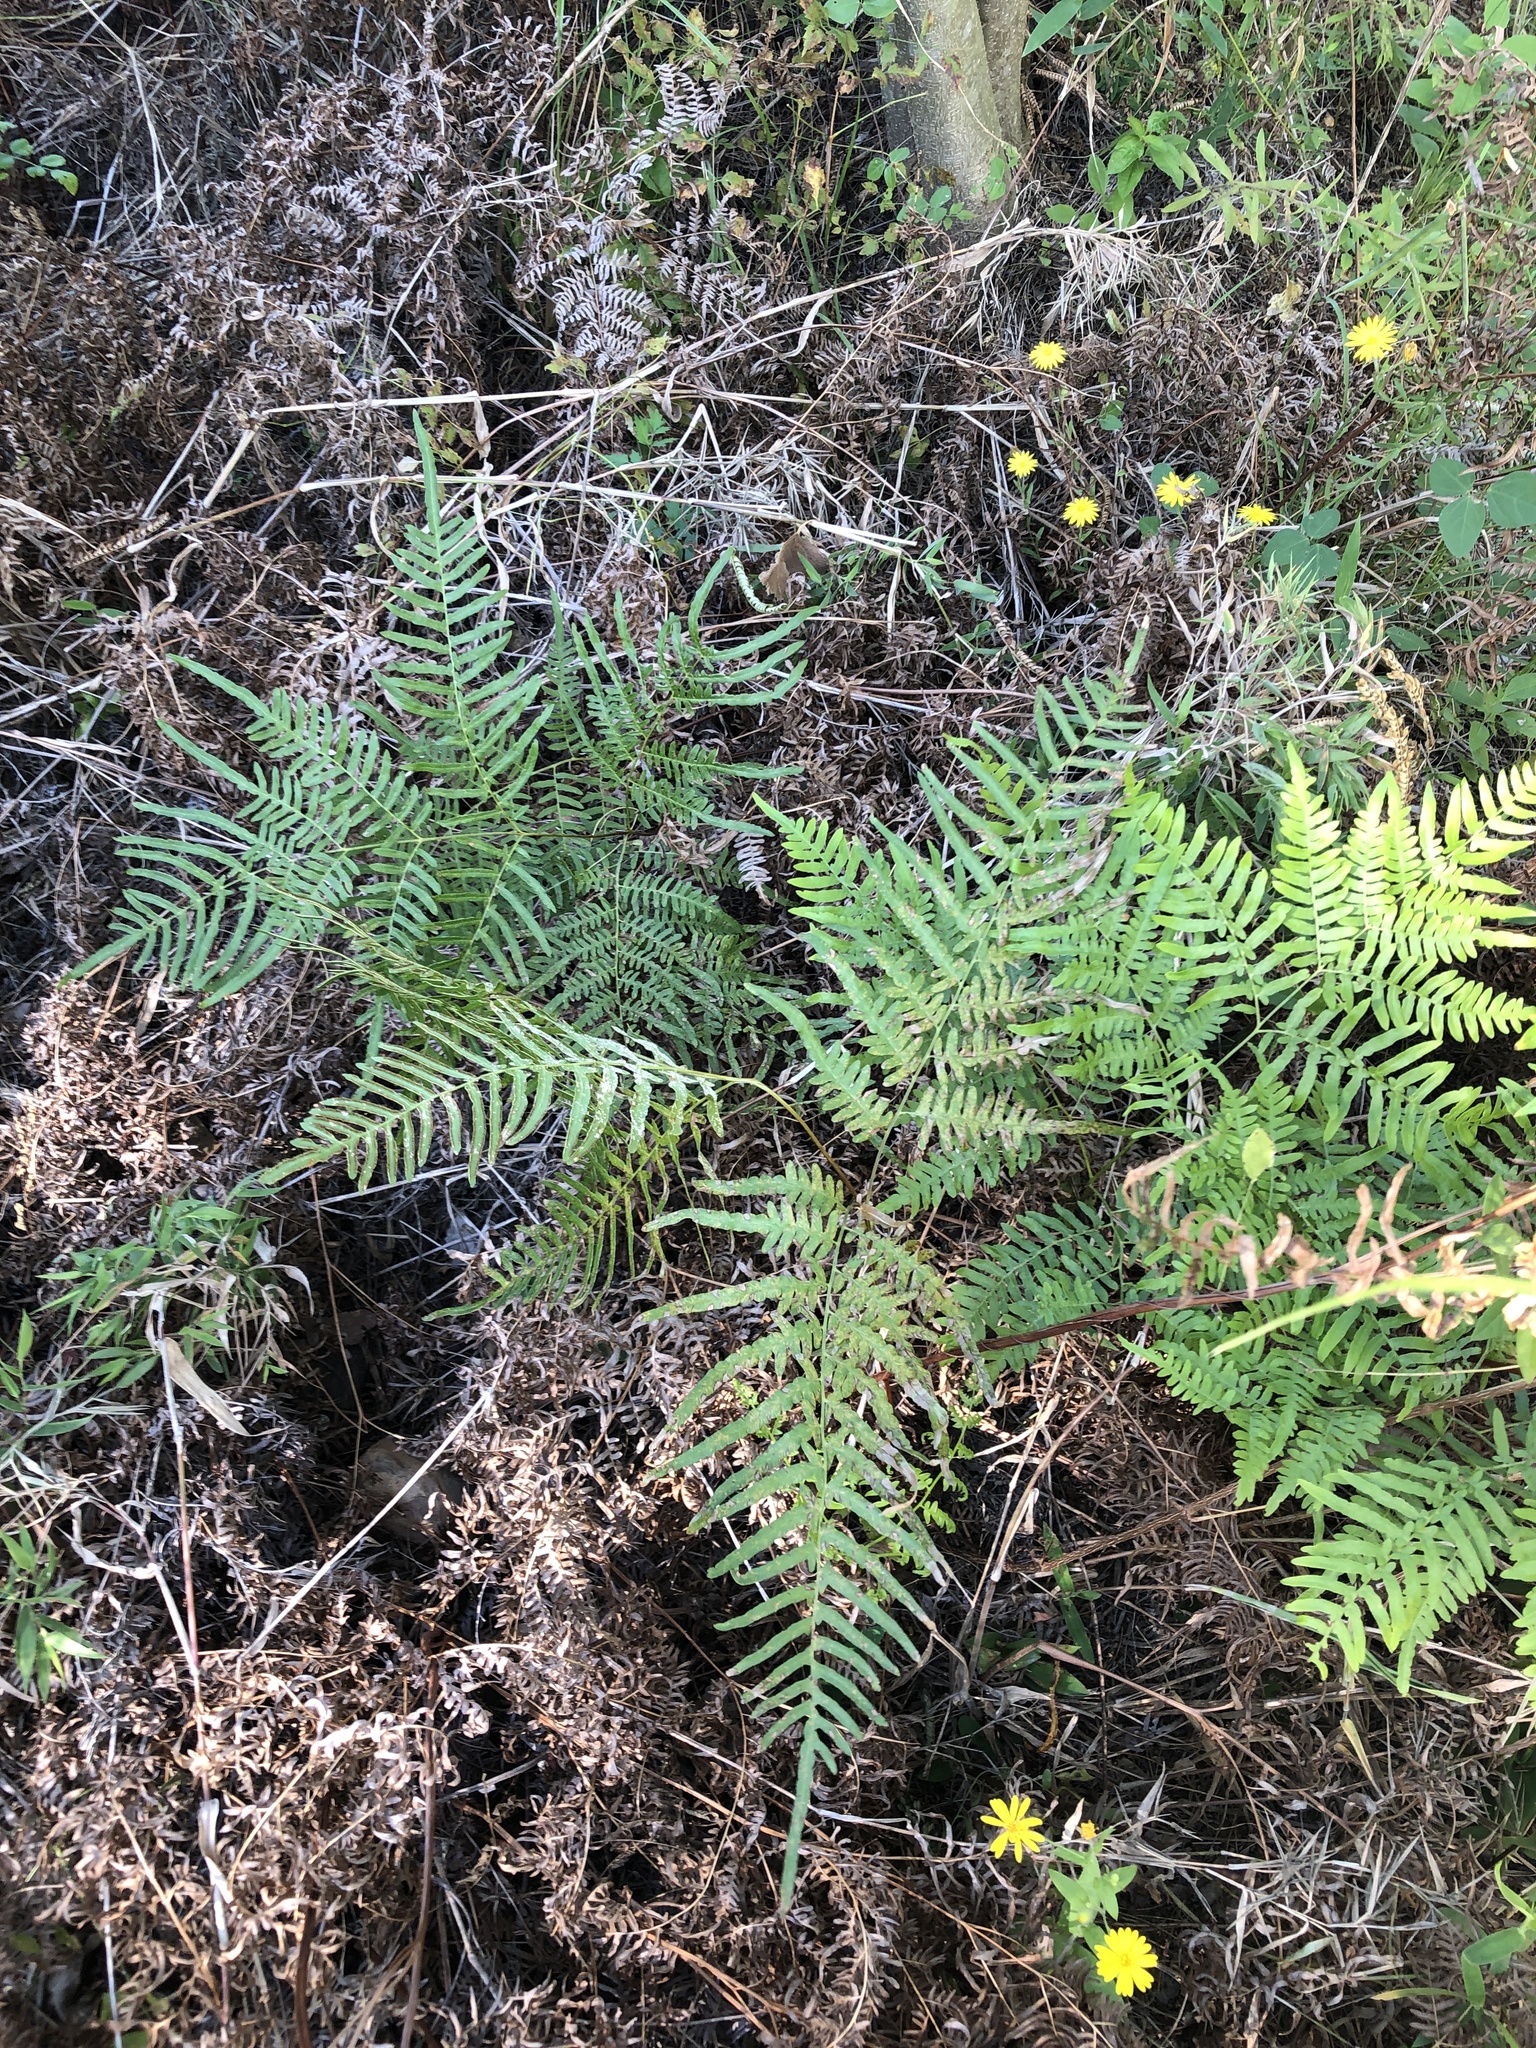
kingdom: Plantae
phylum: Tracheophyta
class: Polypodiopsida
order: Polypodiales
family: Dennstaedtiaceae
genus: Pteridium
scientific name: Pteridium aquilinum
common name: Bracken
